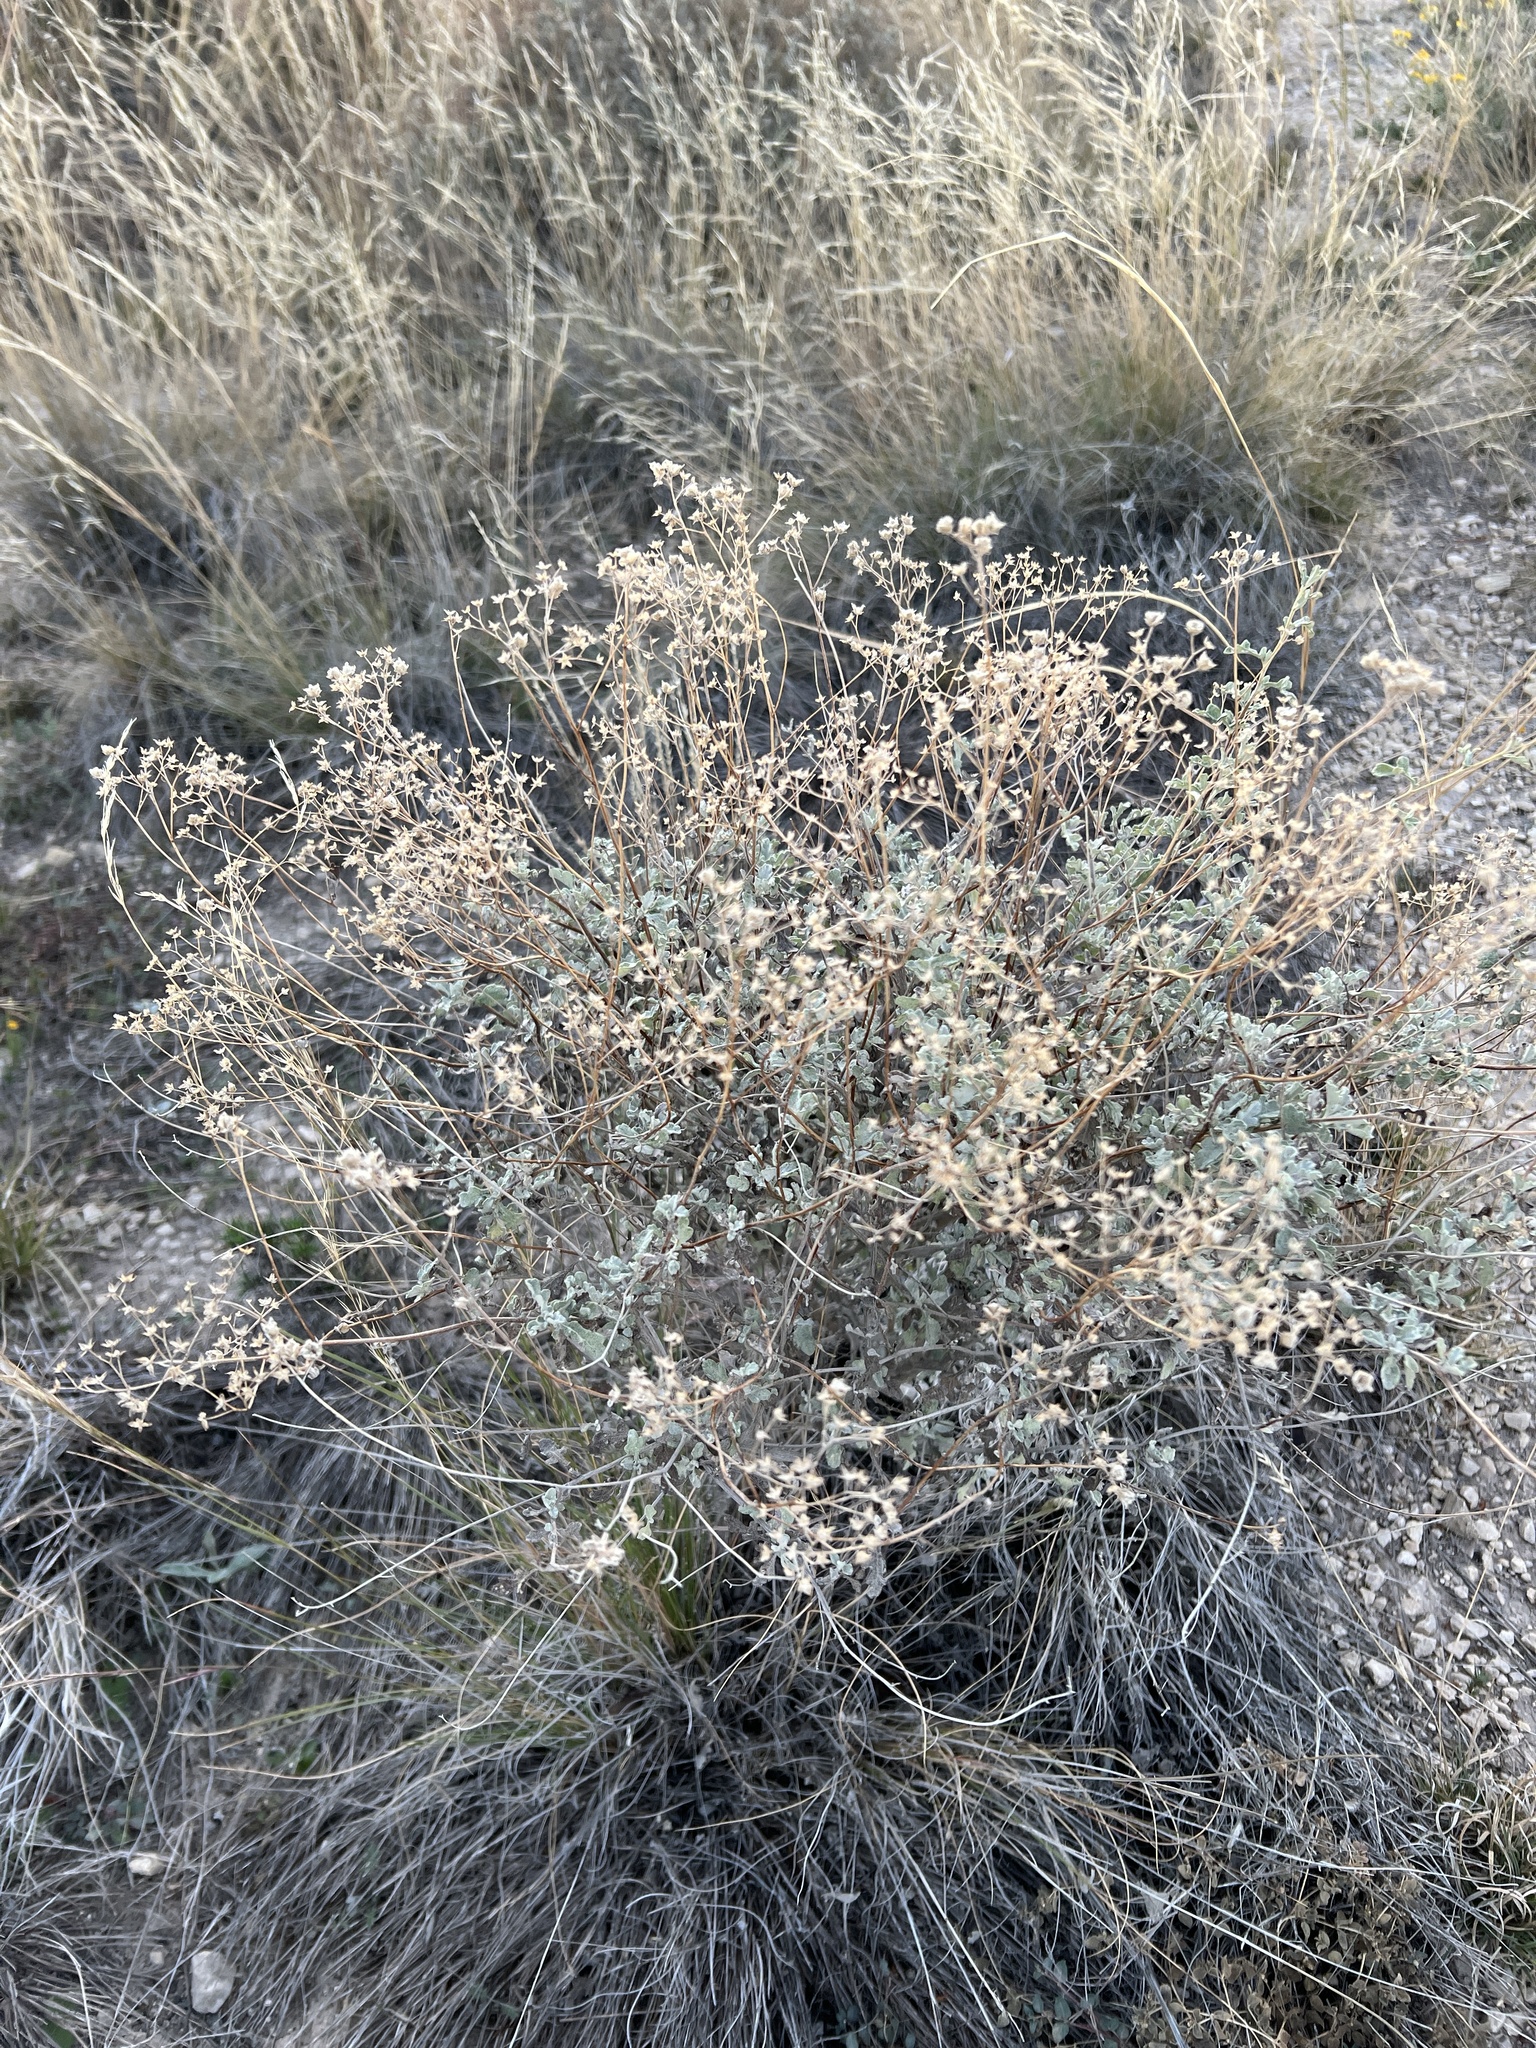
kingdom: Plantae
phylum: Tracheophyta
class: Magnoliopsida
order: Asterales
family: Asteraceae
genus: Parthenium
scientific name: Parthenium incanum
